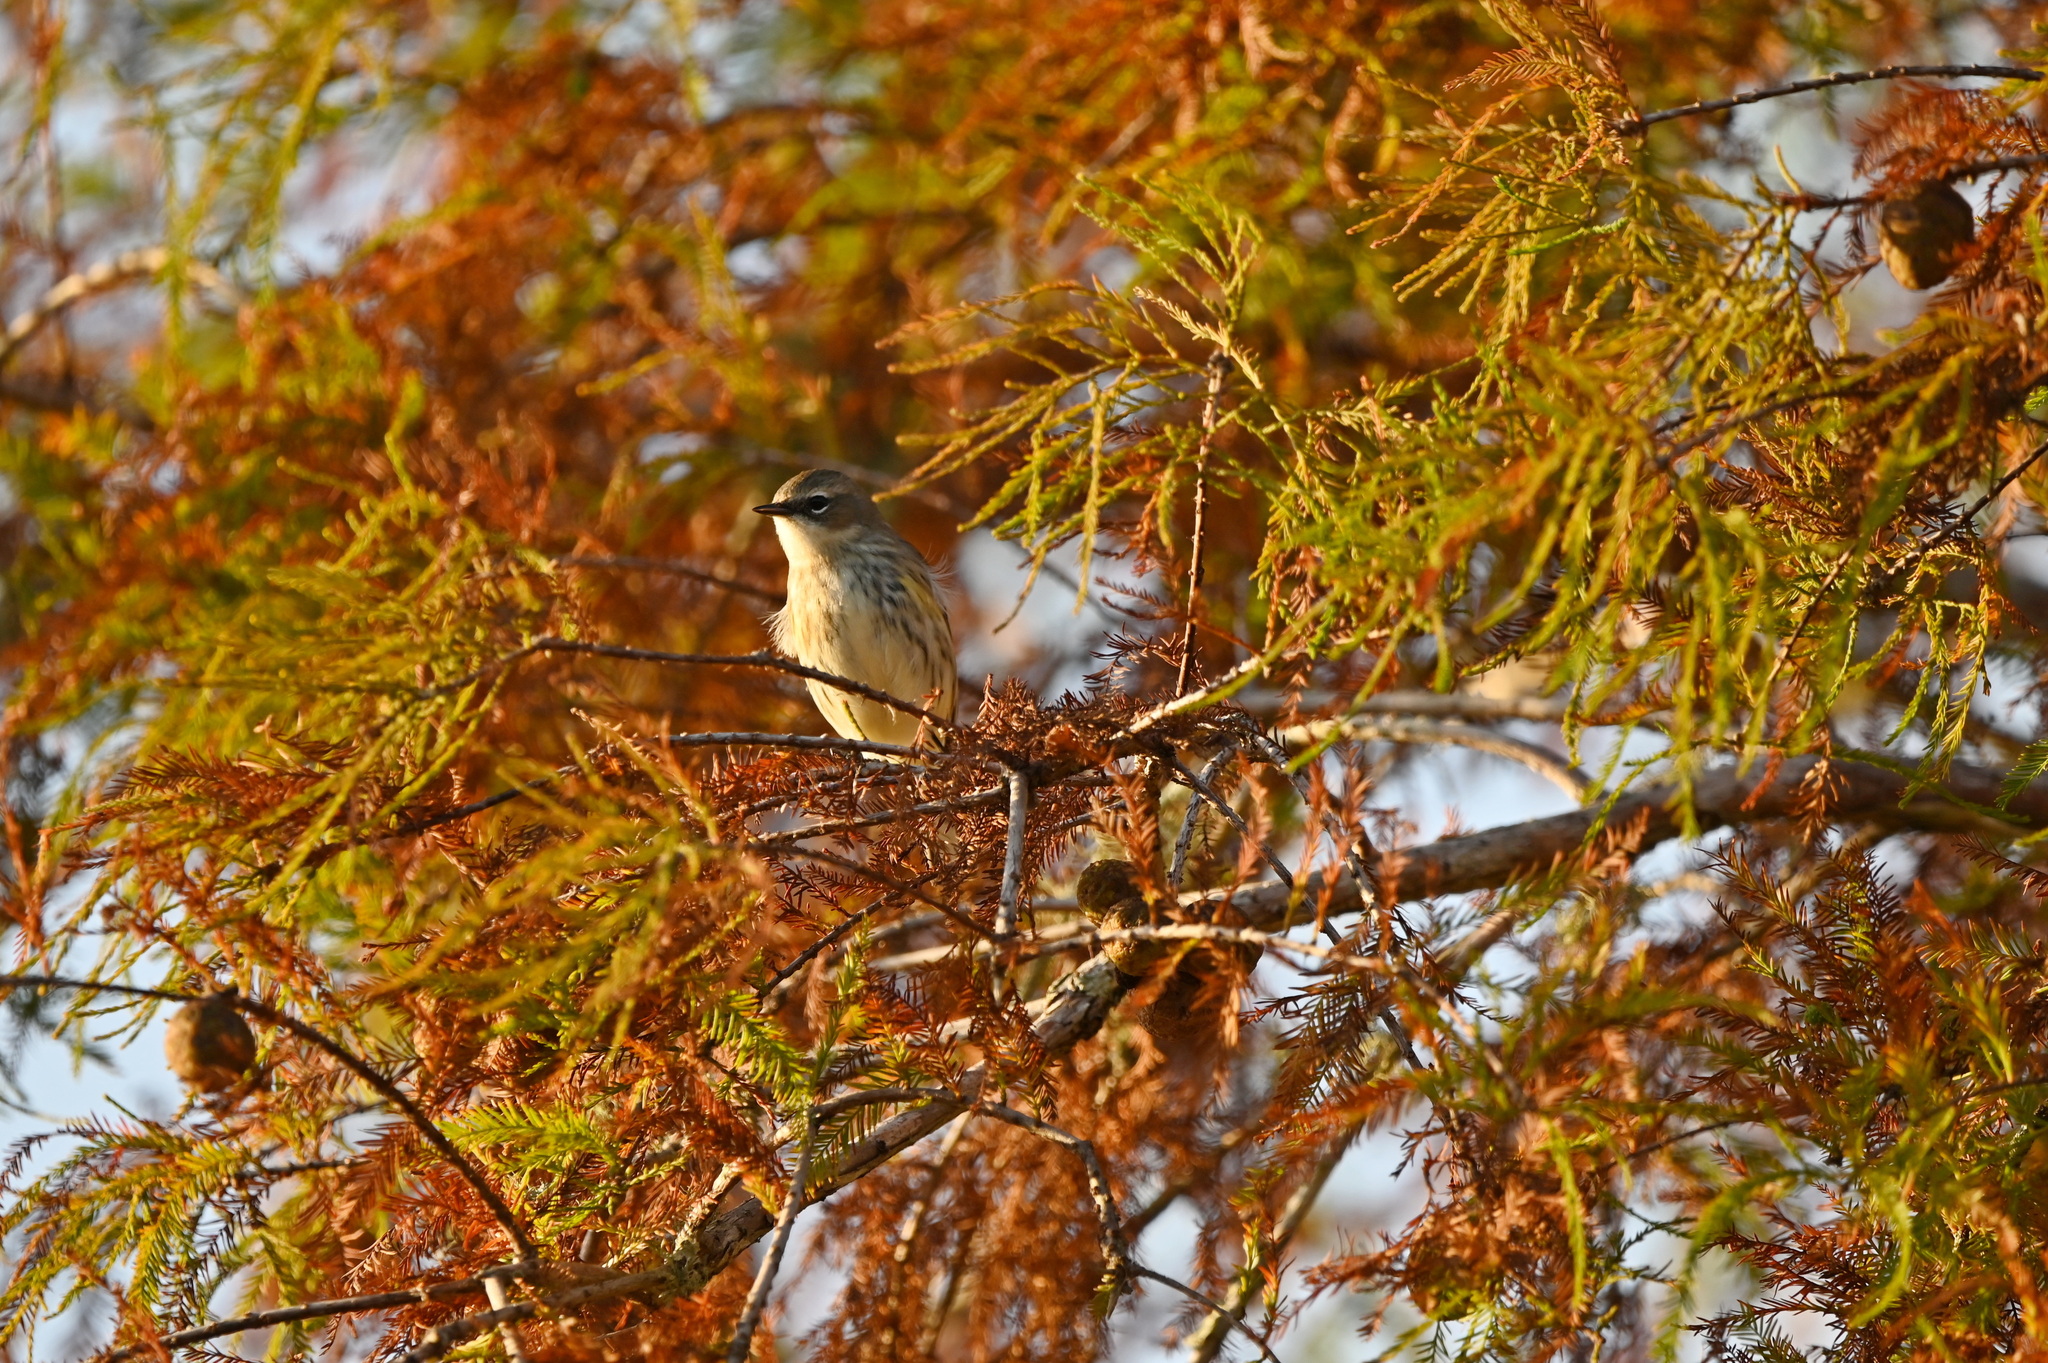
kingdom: Animalia
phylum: Chordata
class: Aves
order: Passeriformes
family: Parulidae
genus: Setophaga
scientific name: Setophaga coronata
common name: Myrtle warbler
